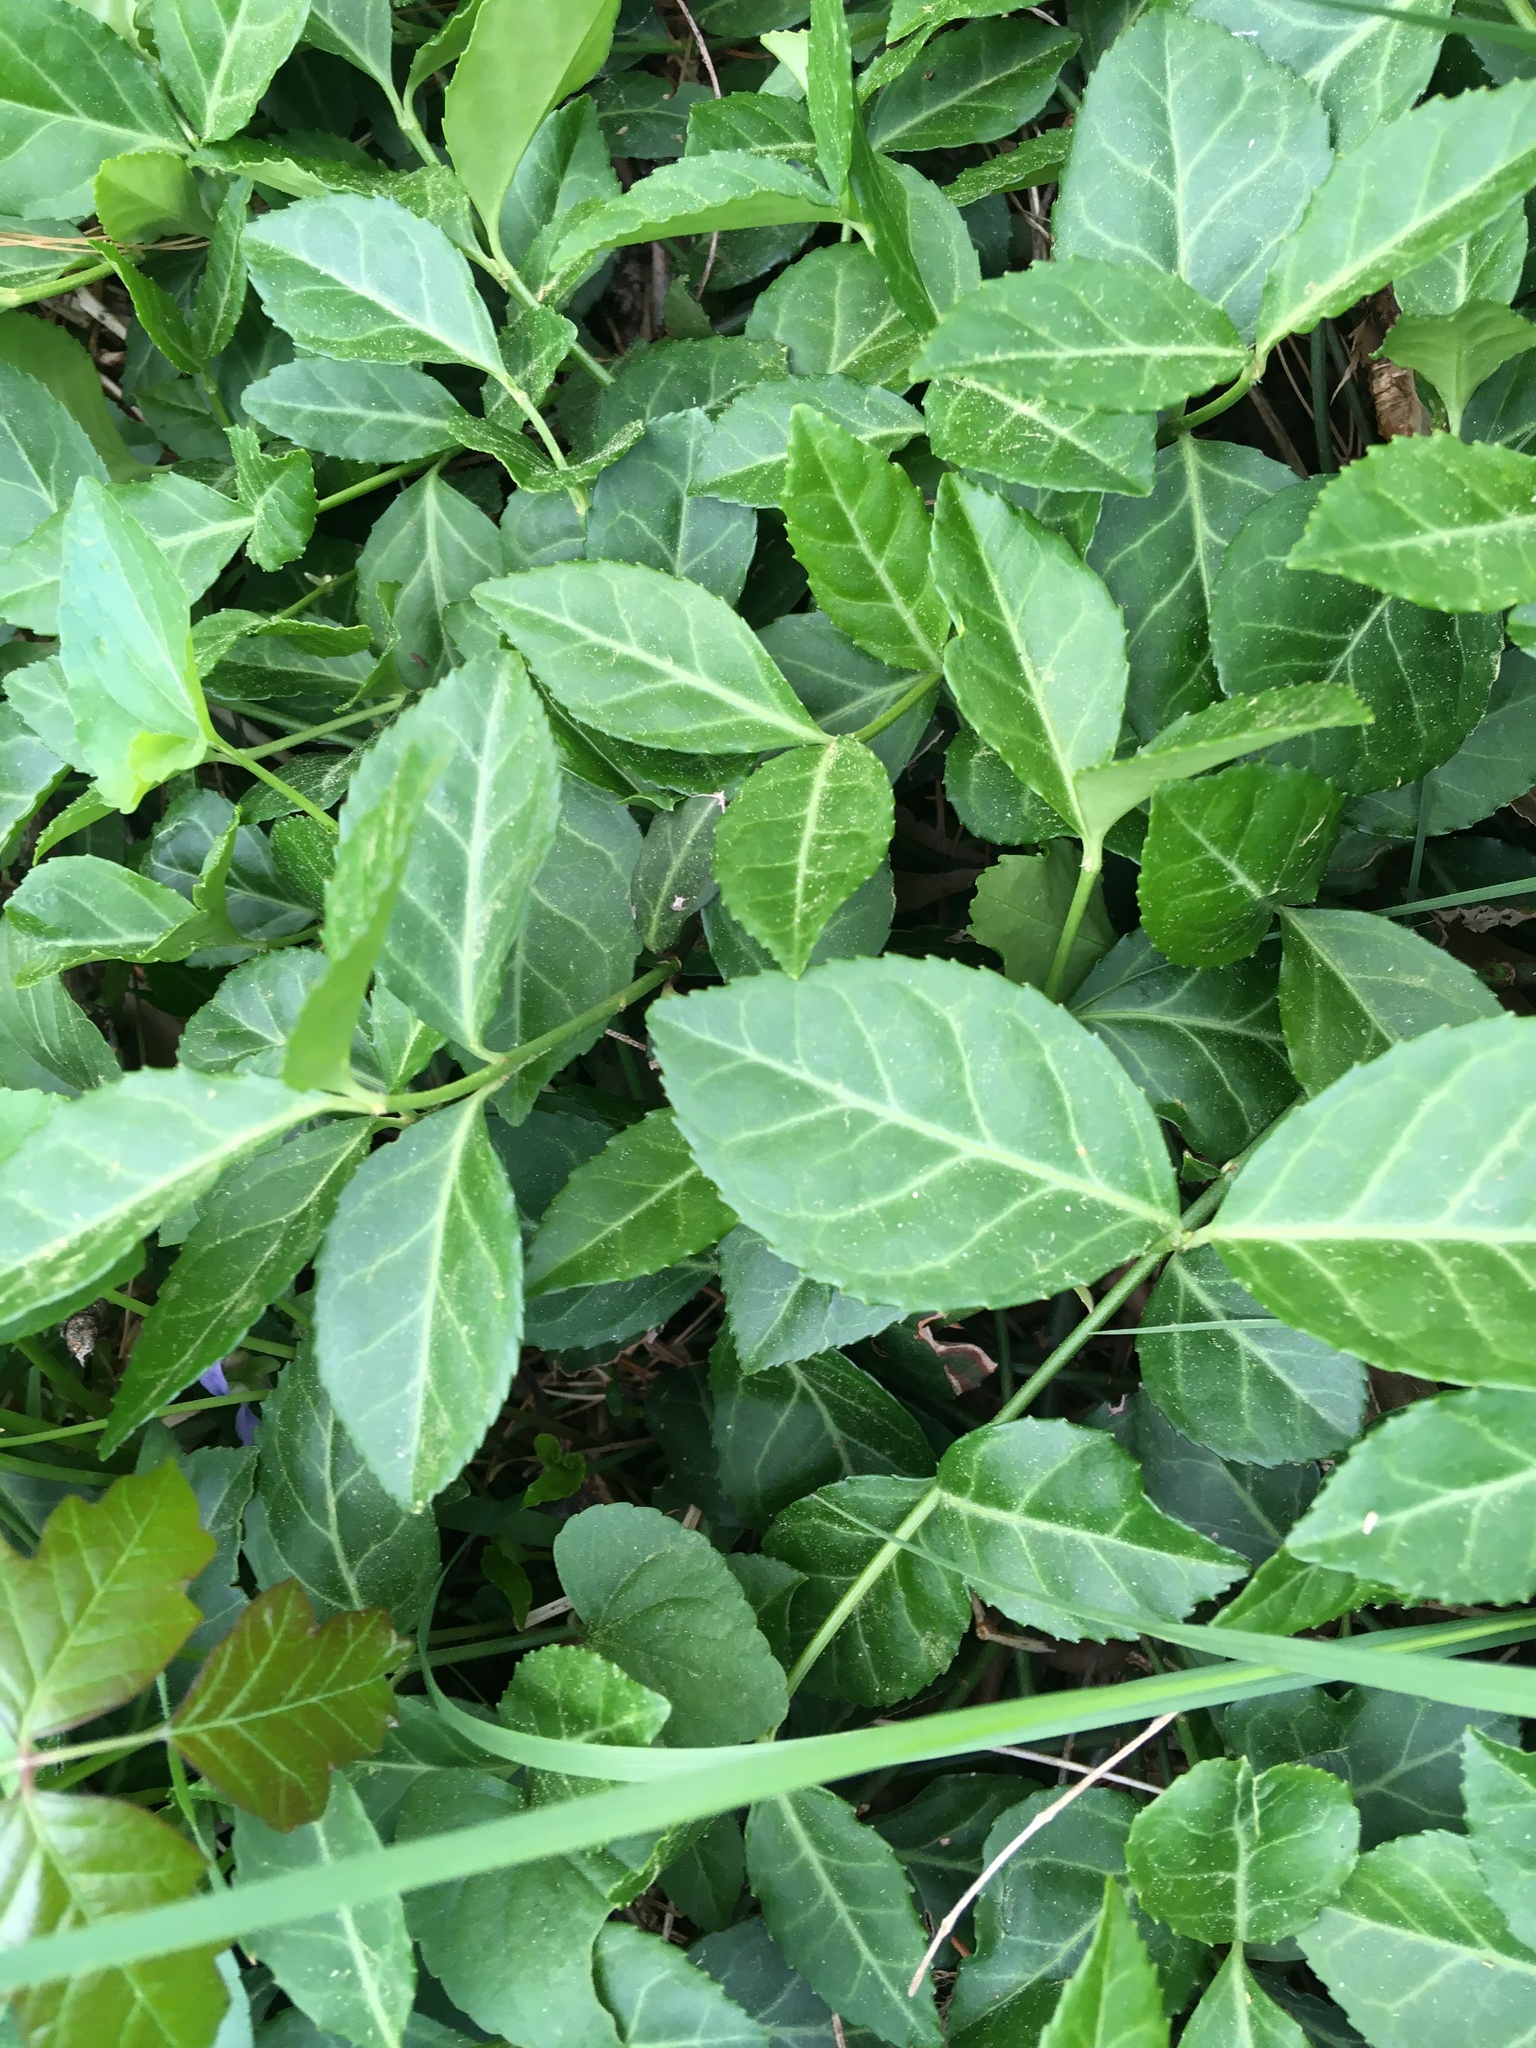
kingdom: Plantae
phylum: Tracheophyta
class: Magnoliopsida
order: Celastrales
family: Celastraceae
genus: Euonymus
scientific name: Euonymus fortunei
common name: Climbing euonymus
